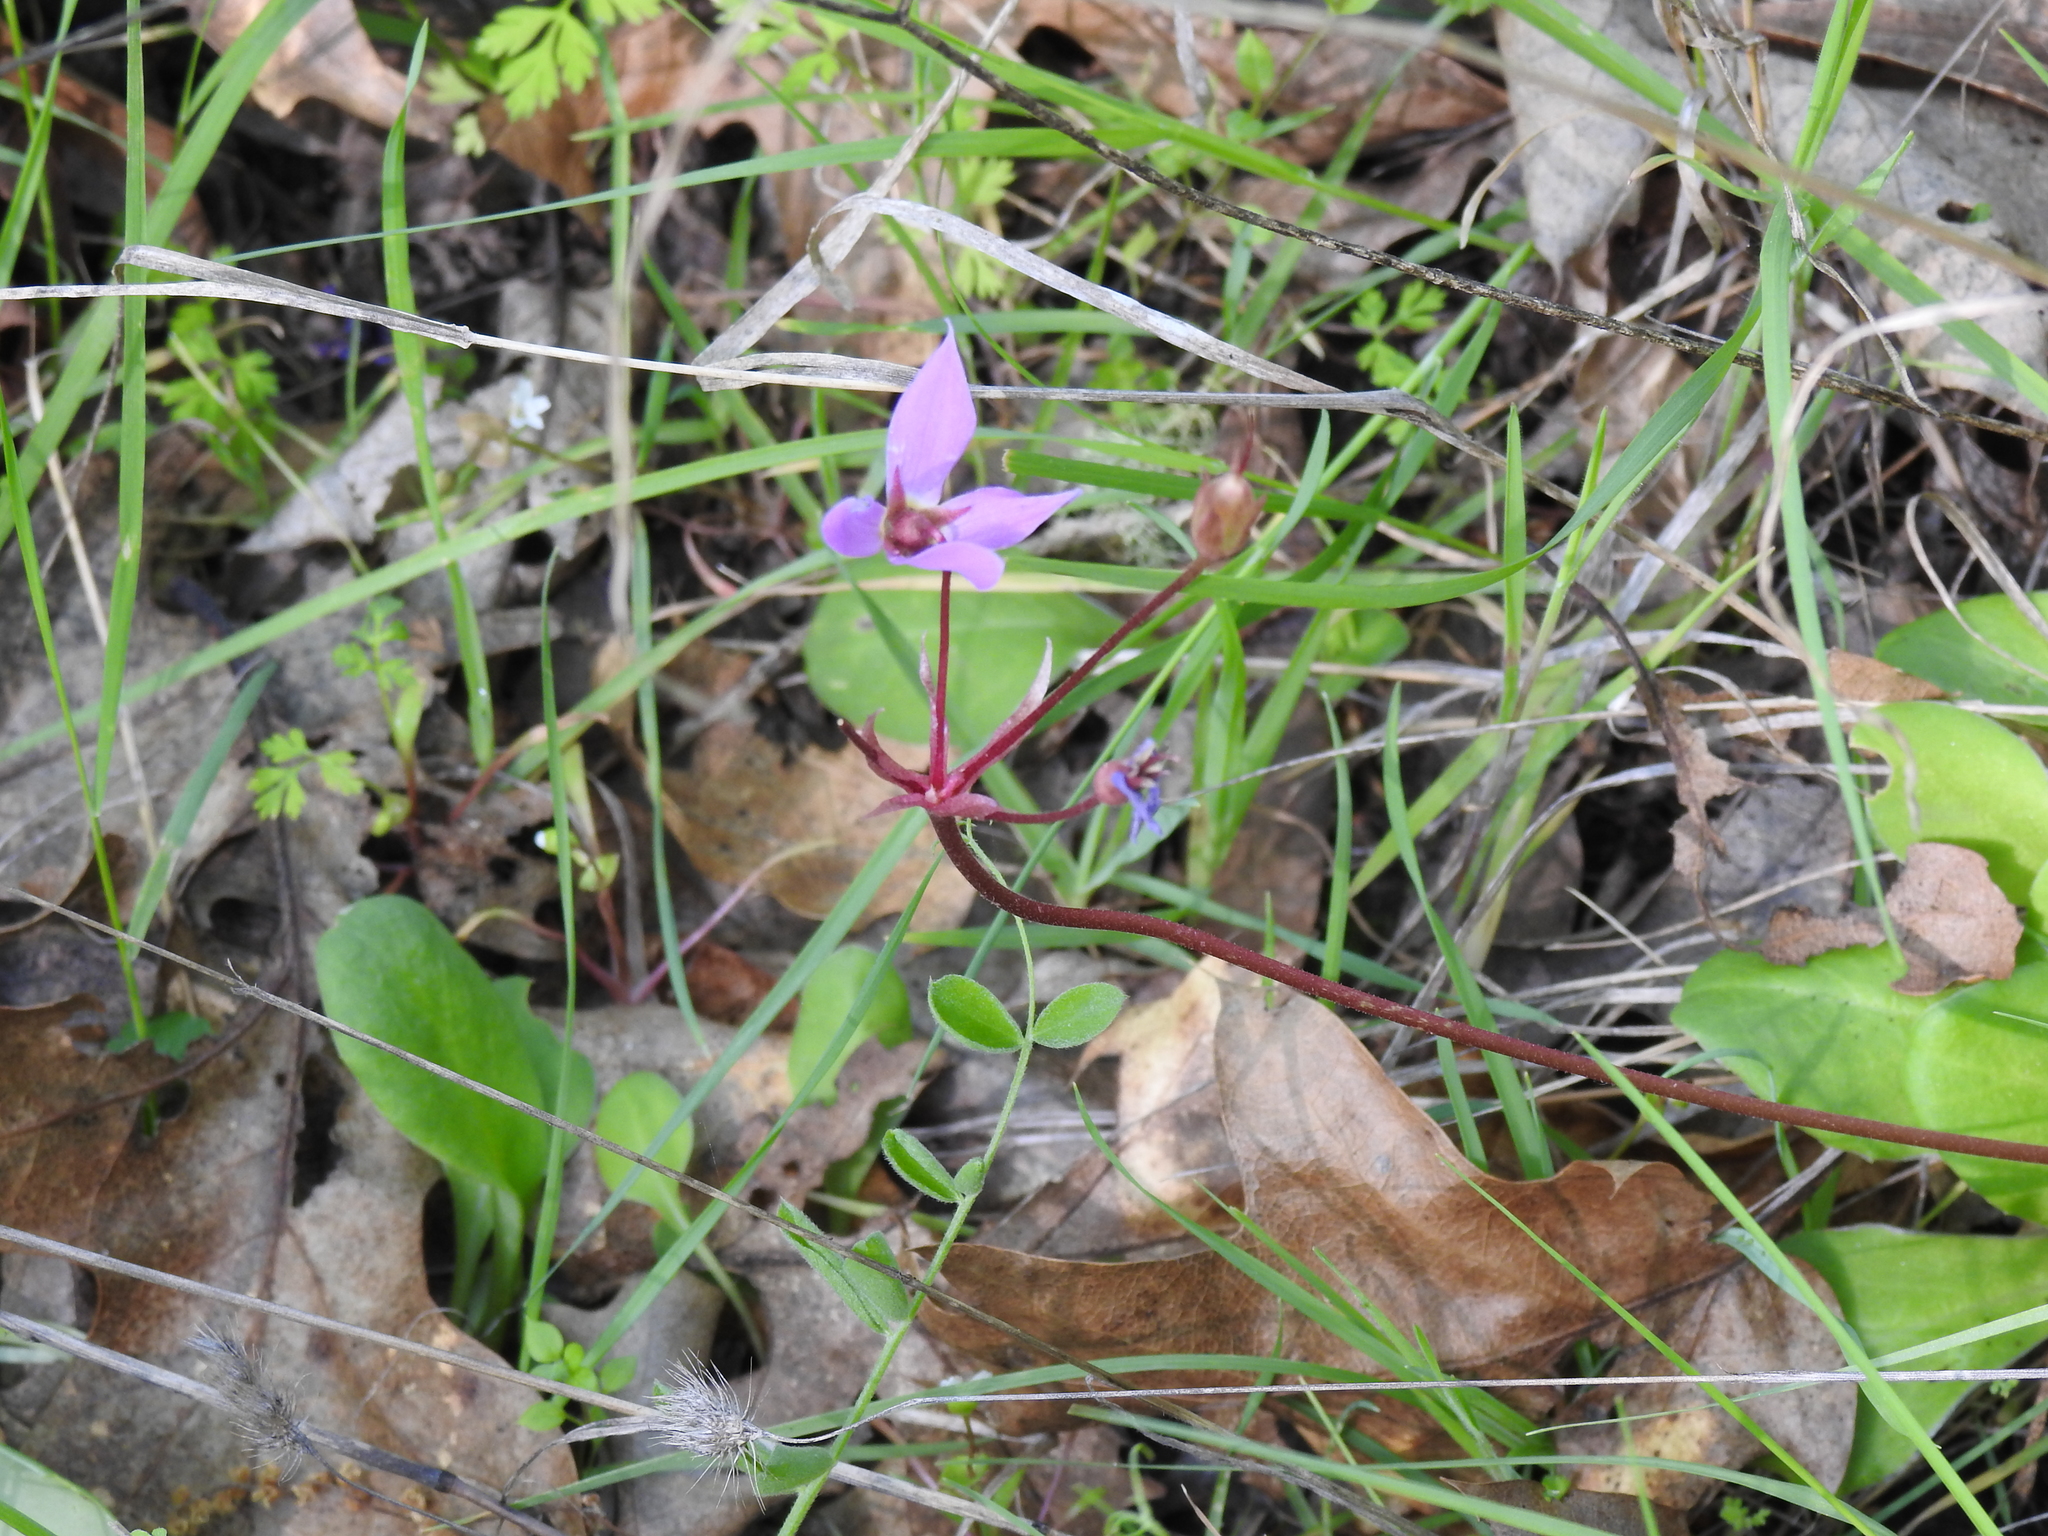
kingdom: Plantae
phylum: Tracheophyta
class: Magnoliopsida
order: Ericales
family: Primulaceae
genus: Dodecatheon
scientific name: Dodecatheon hendersonii
